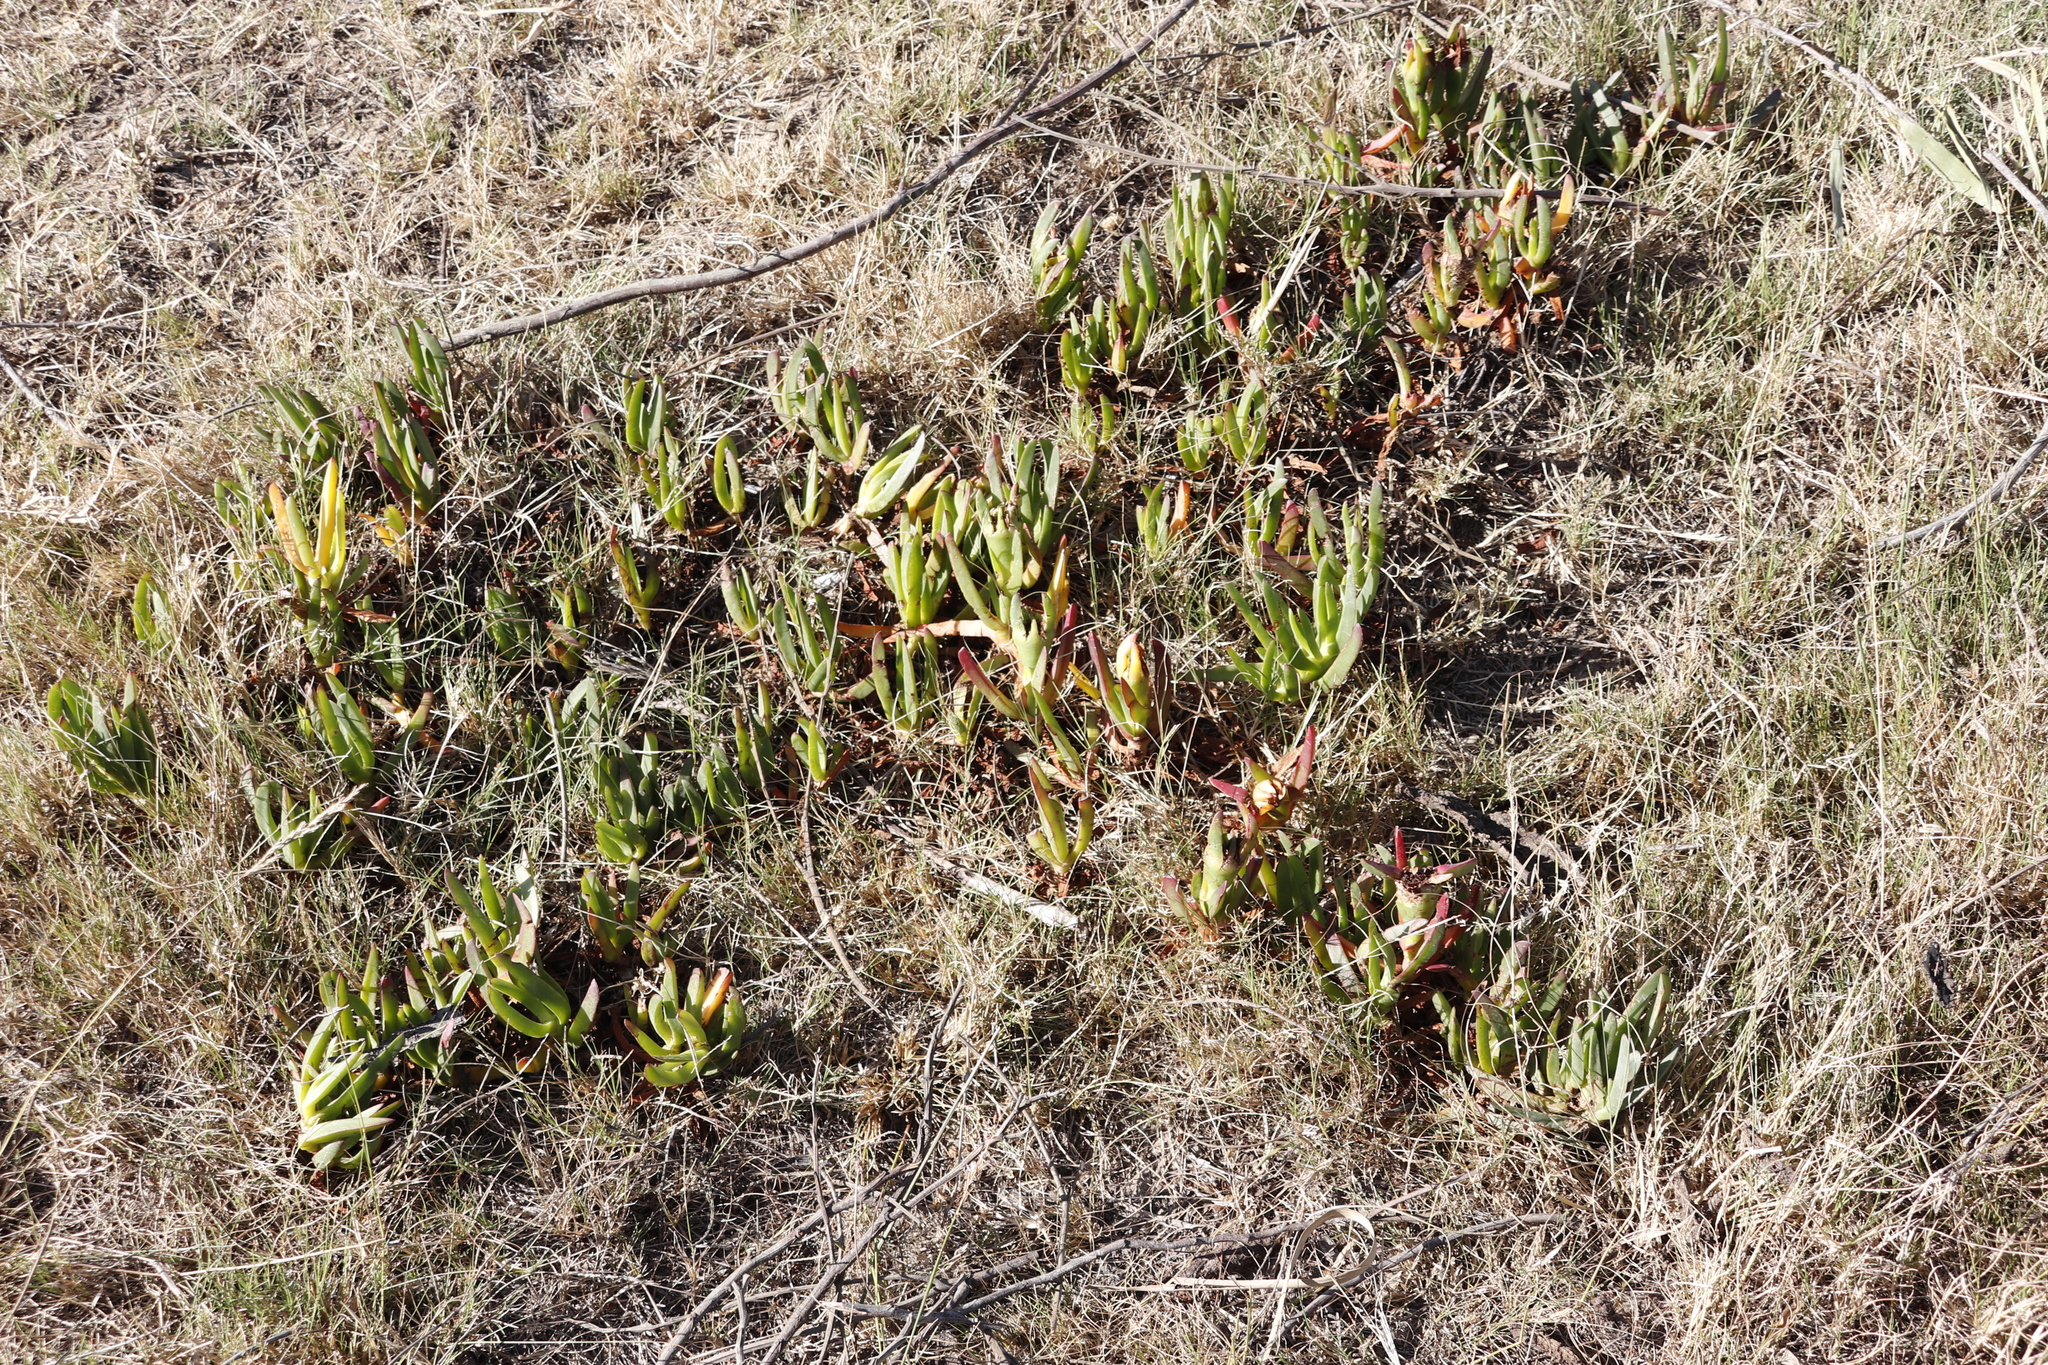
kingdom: Plantae
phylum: Tracheophyta
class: Magnoliopsida
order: Caryophyllales
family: Aizoaceae
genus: Carpobrotus
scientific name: Carpobrotus edulis
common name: Hottentot-fig
